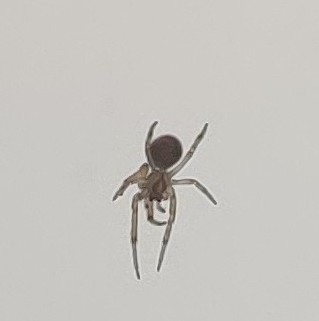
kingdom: Animalia
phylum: Arthropoda
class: Arachnida
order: Araneae
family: Araneidae
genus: Zygiella
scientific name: Zygiella x-notata
